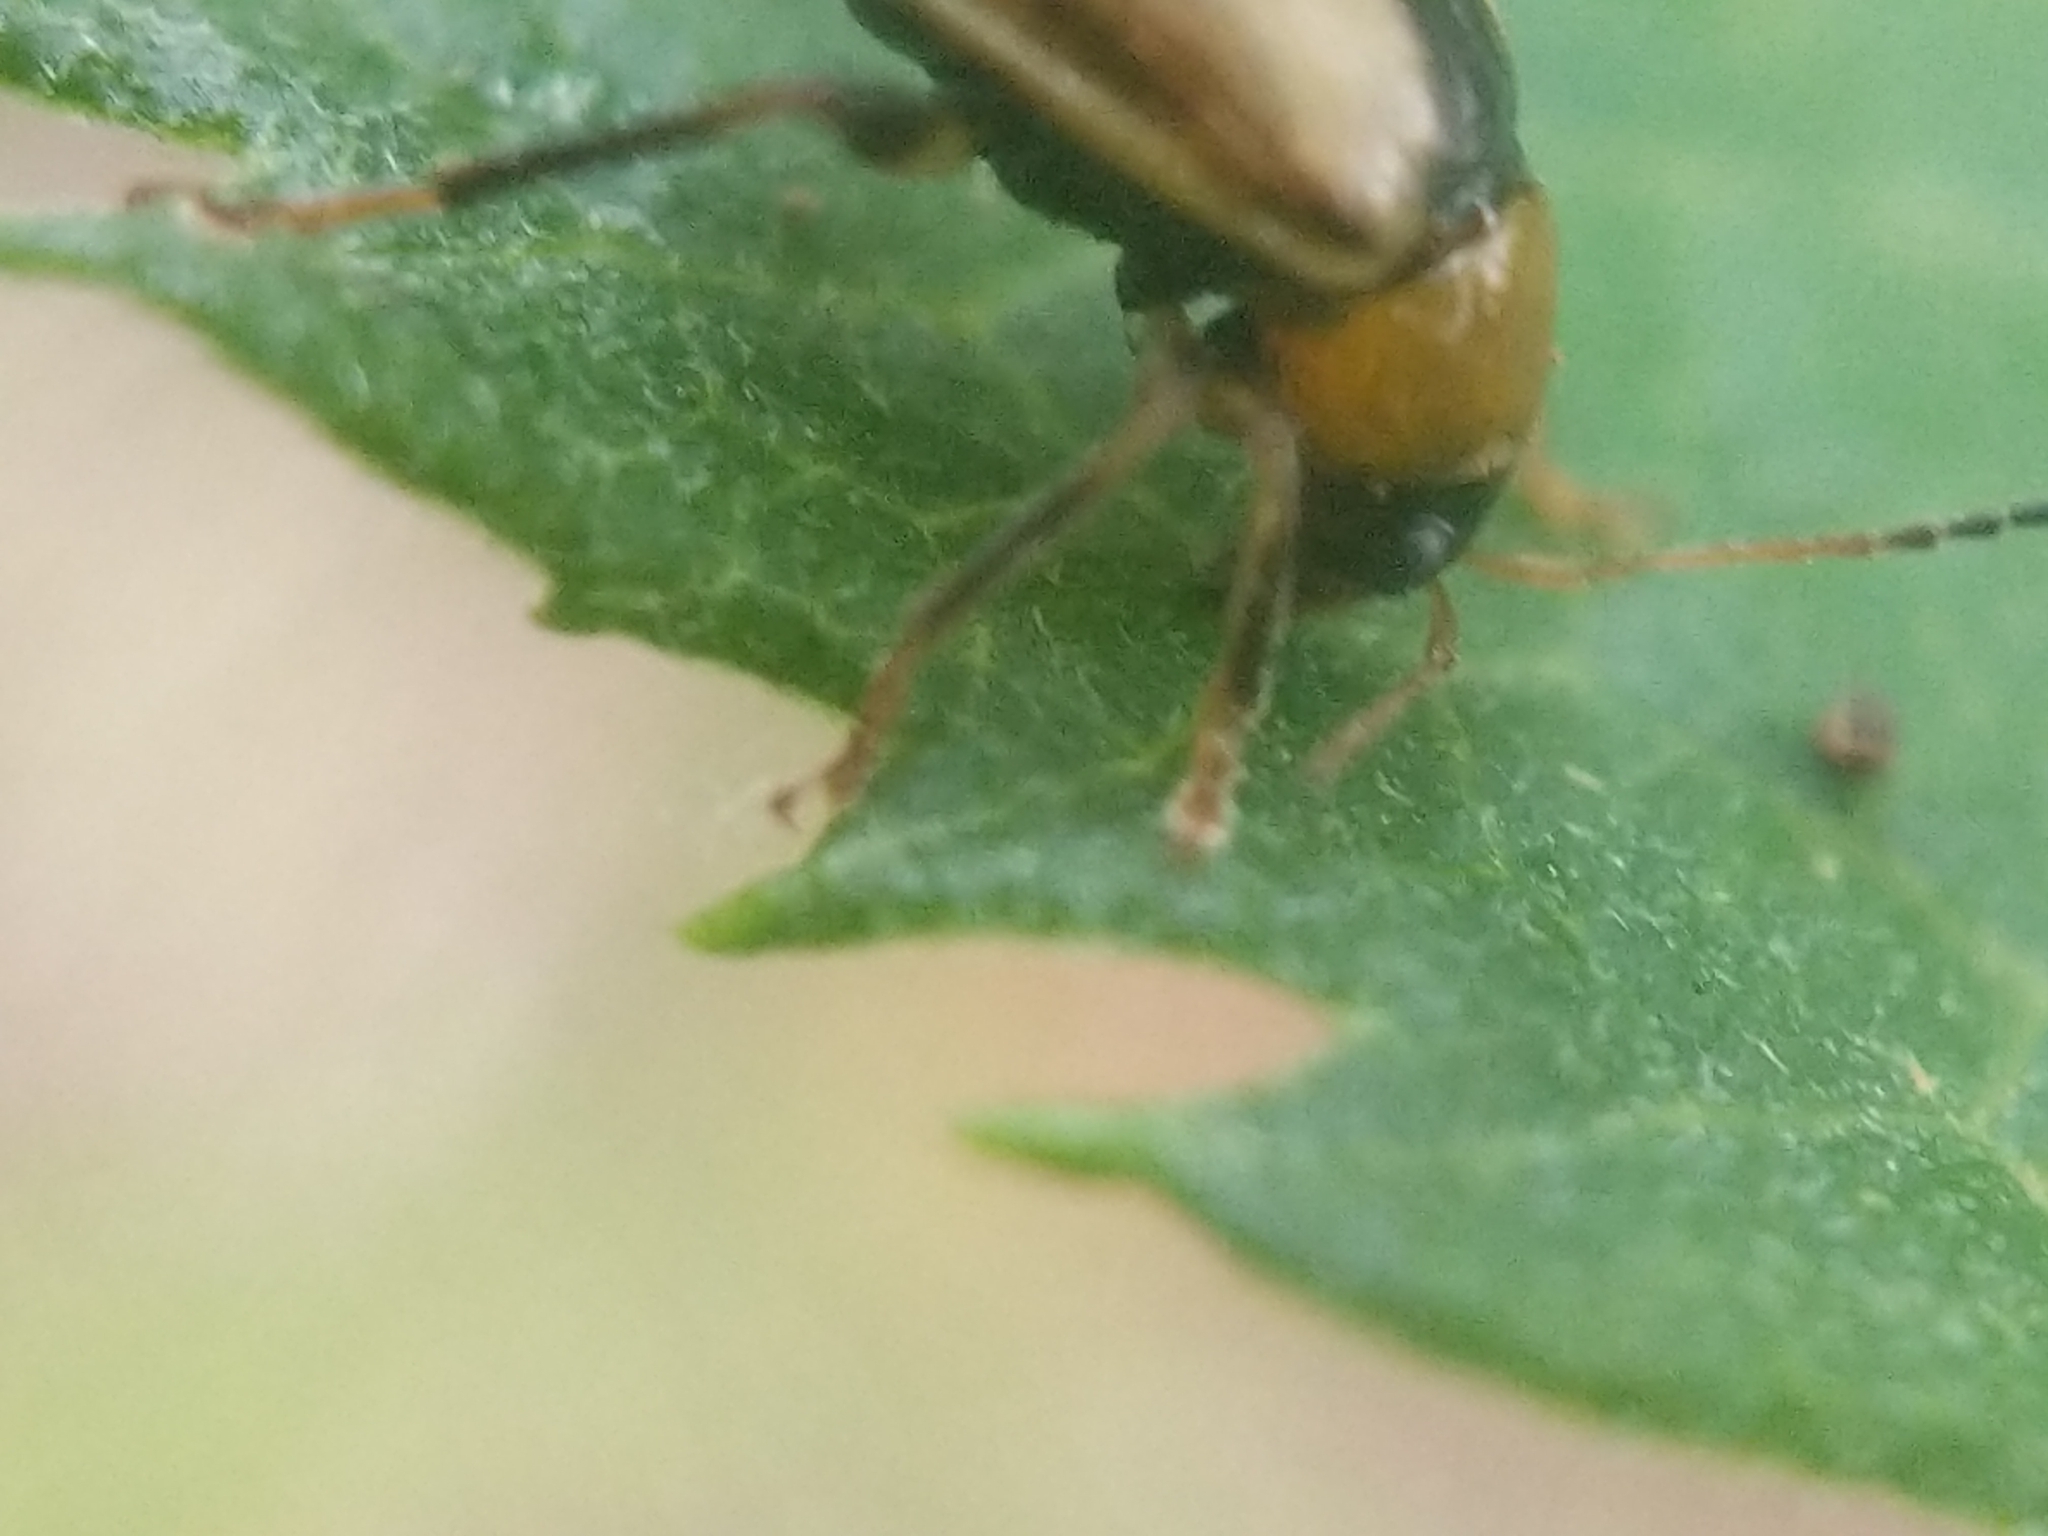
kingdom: Animalia
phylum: Arthropoda
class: Insecta
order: Coleoptera
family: Chrysomelidae
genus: Cerotoma
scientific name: Cerotoma trifurcata
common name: Bean leaf beetle
